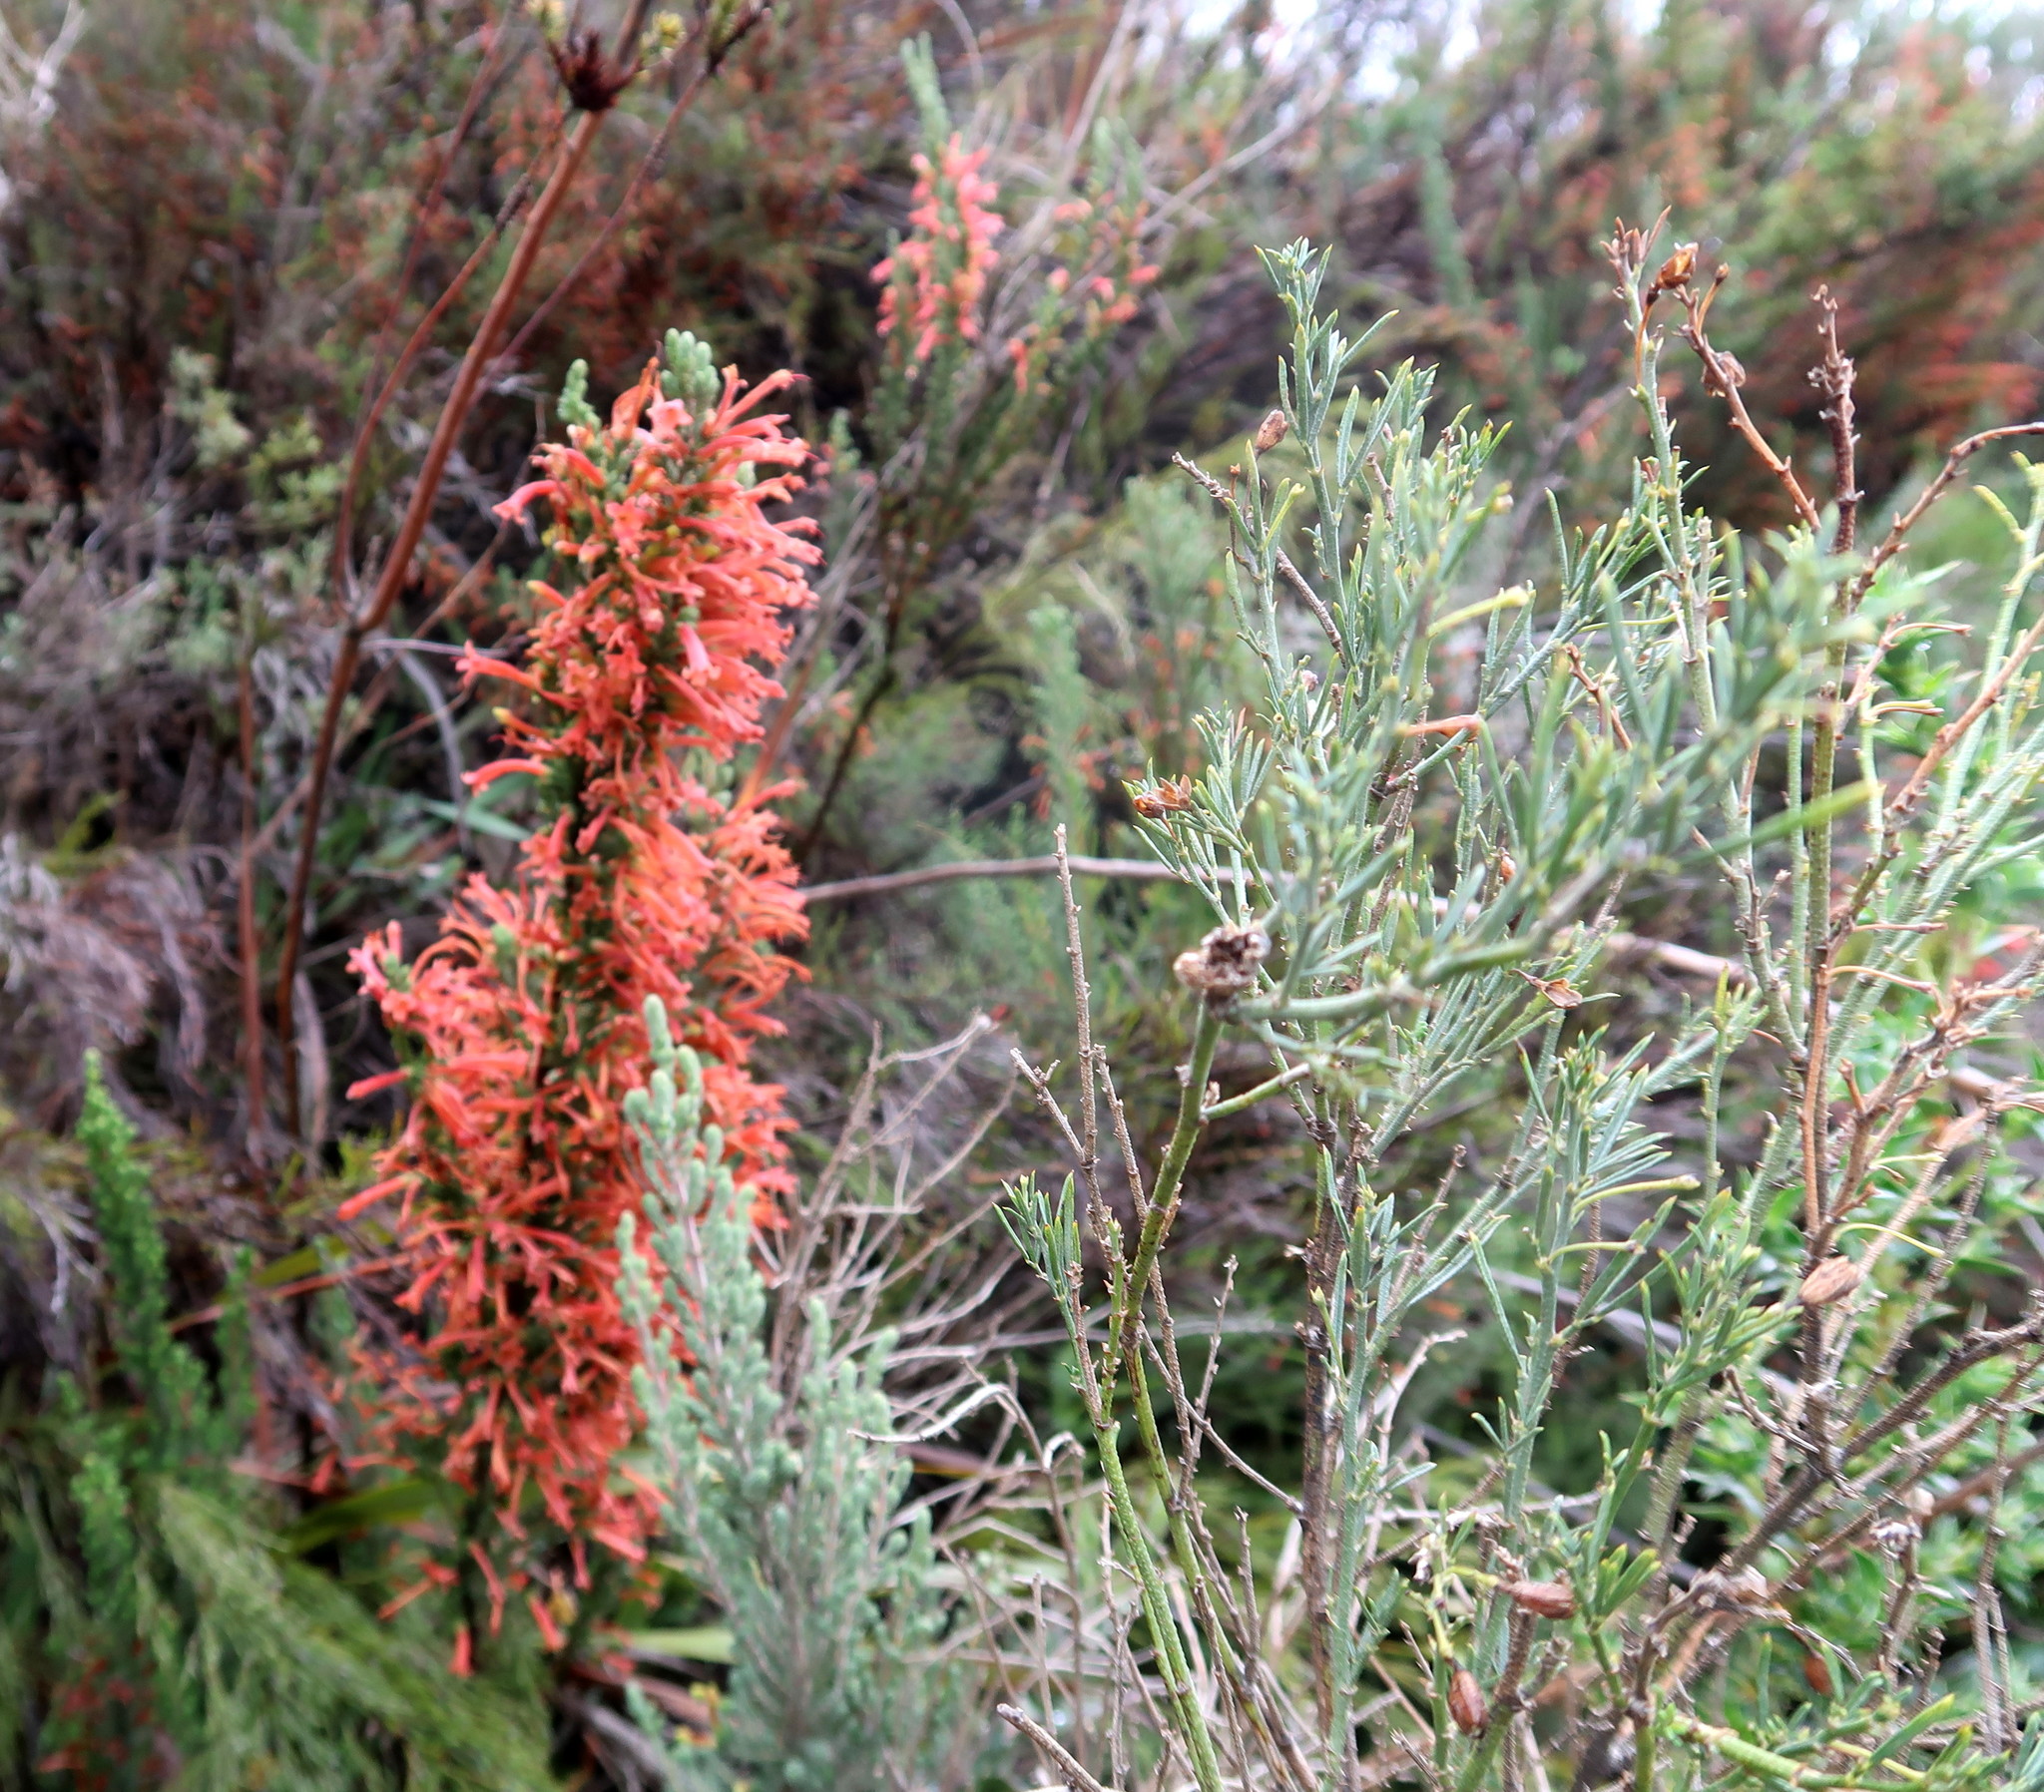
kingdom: Plantae
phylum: Tracheophyta
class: Magnoliopsida
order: Ericales
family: Ericaceae
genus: Erica
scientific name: Erica curviflora
